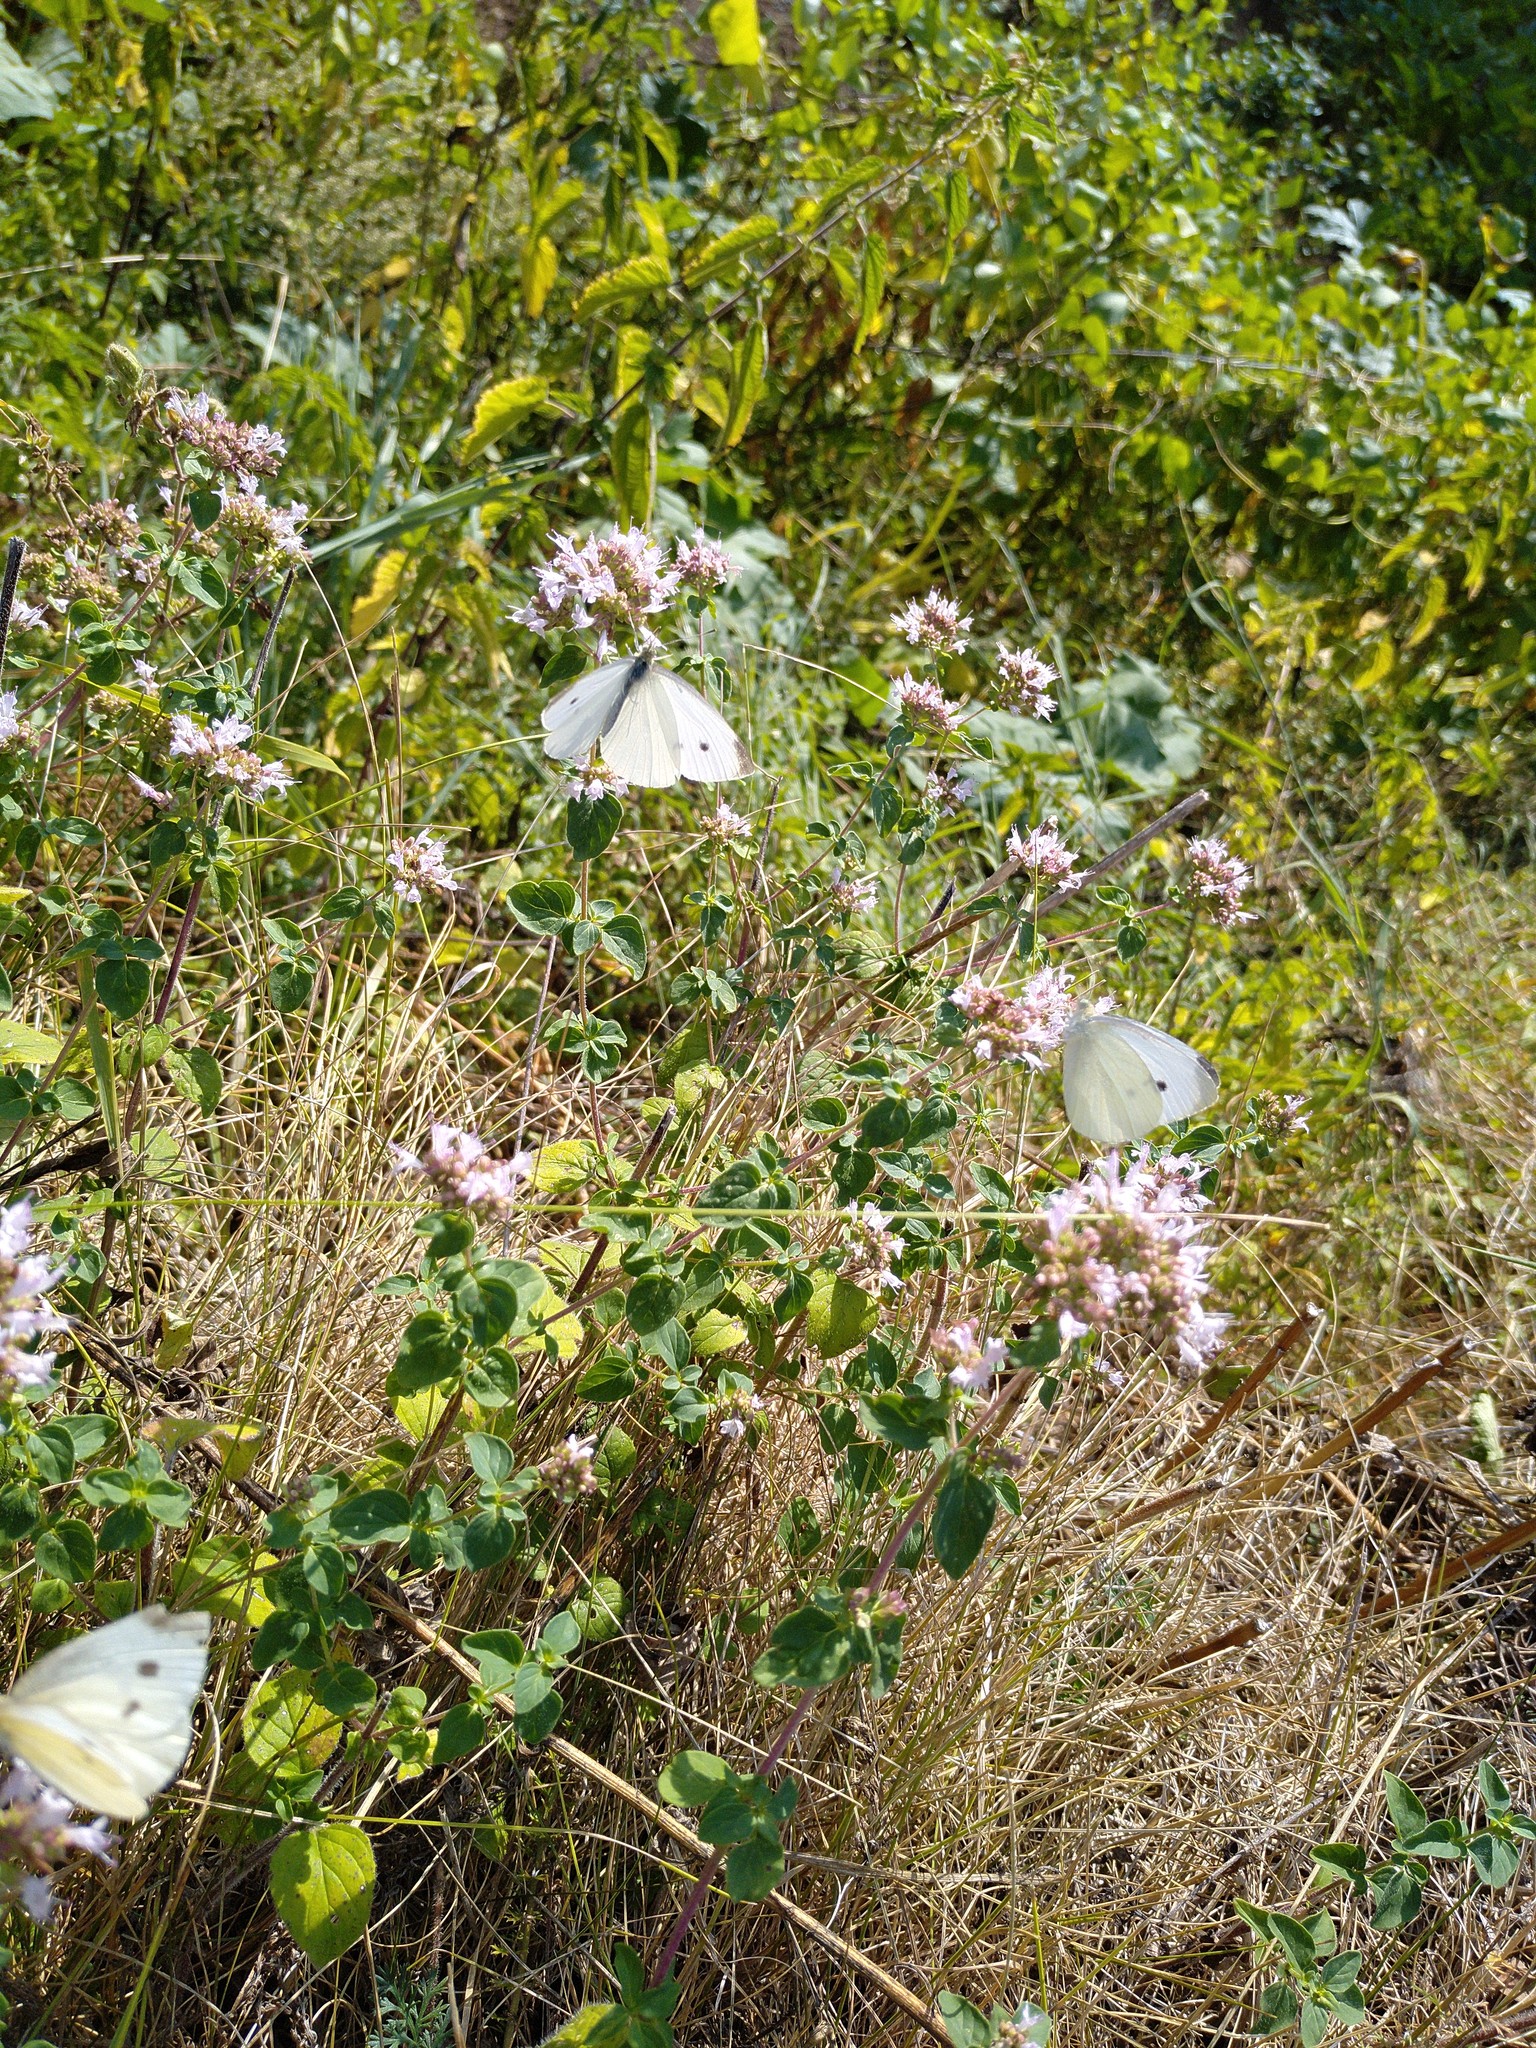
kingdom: Animalia
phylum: Arthropoda
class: Insecta
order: Lepidoptera
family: Pieridae
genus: Pieris
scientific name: Pieris rapae
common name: Small white
